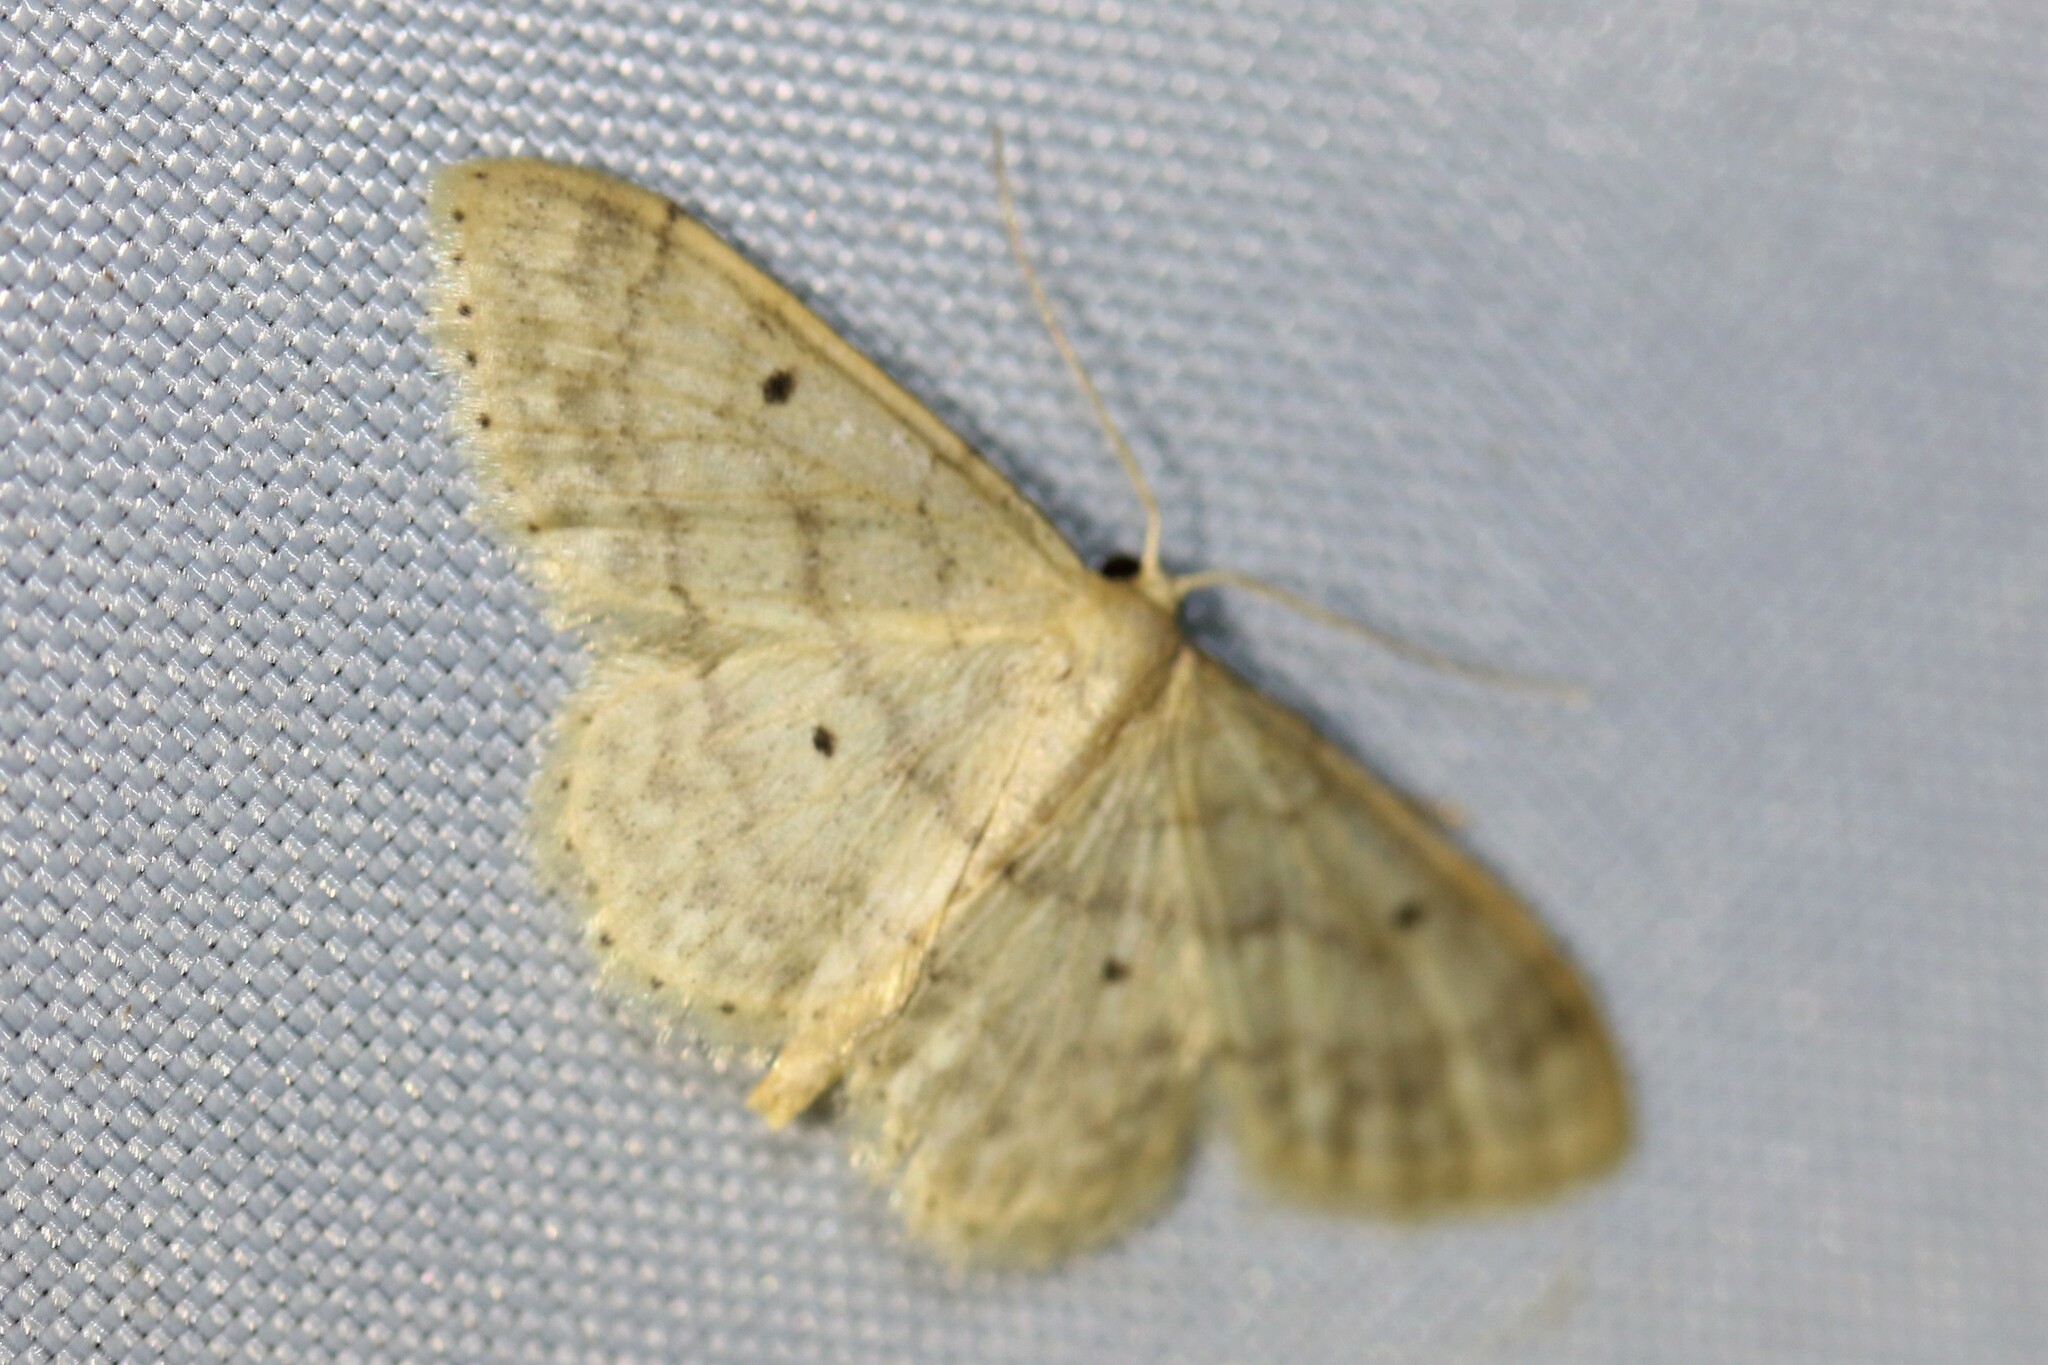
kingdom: Animalia
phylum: Arthropoda
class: Insecta
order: Lepidoptera
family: Geometridae
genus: Idaea
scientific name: Idaea biselata
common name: Small fan-footed wave
